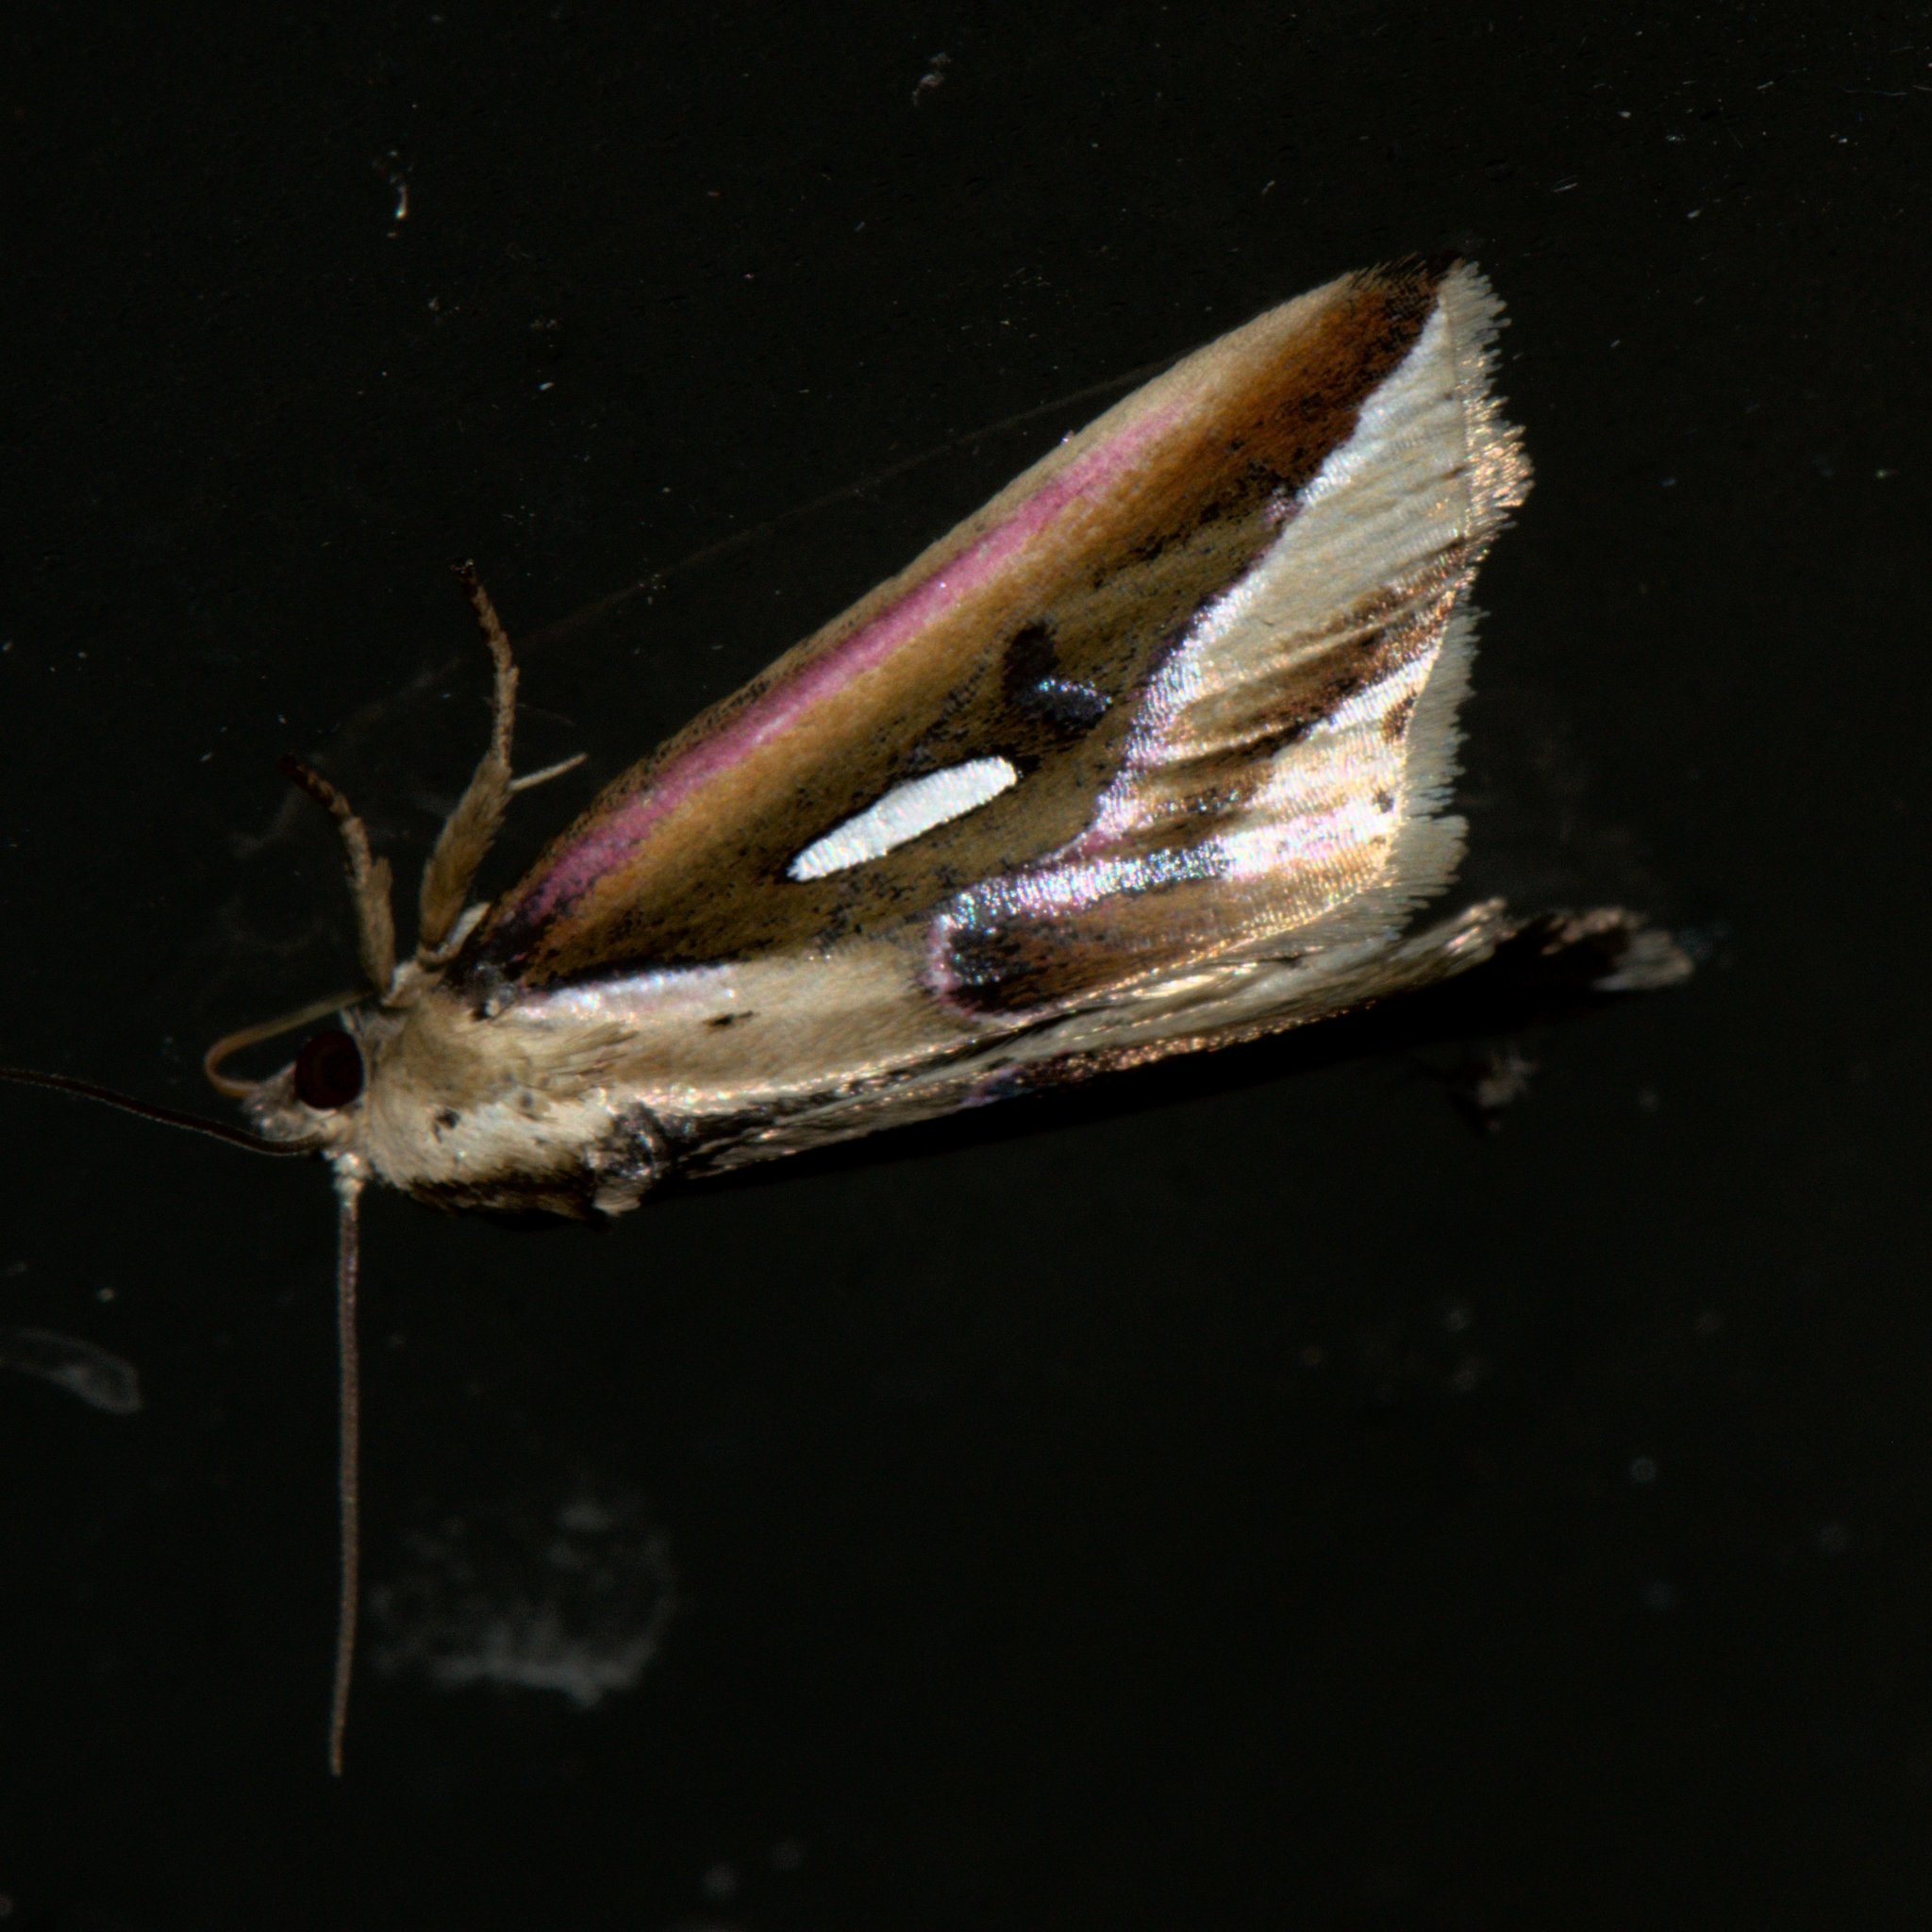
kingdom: Animalia
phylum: Arthropoda
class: Insecta
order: Lepidoptera
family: Noctuidae
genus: Micardia
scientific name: Micardia pulcherrima
